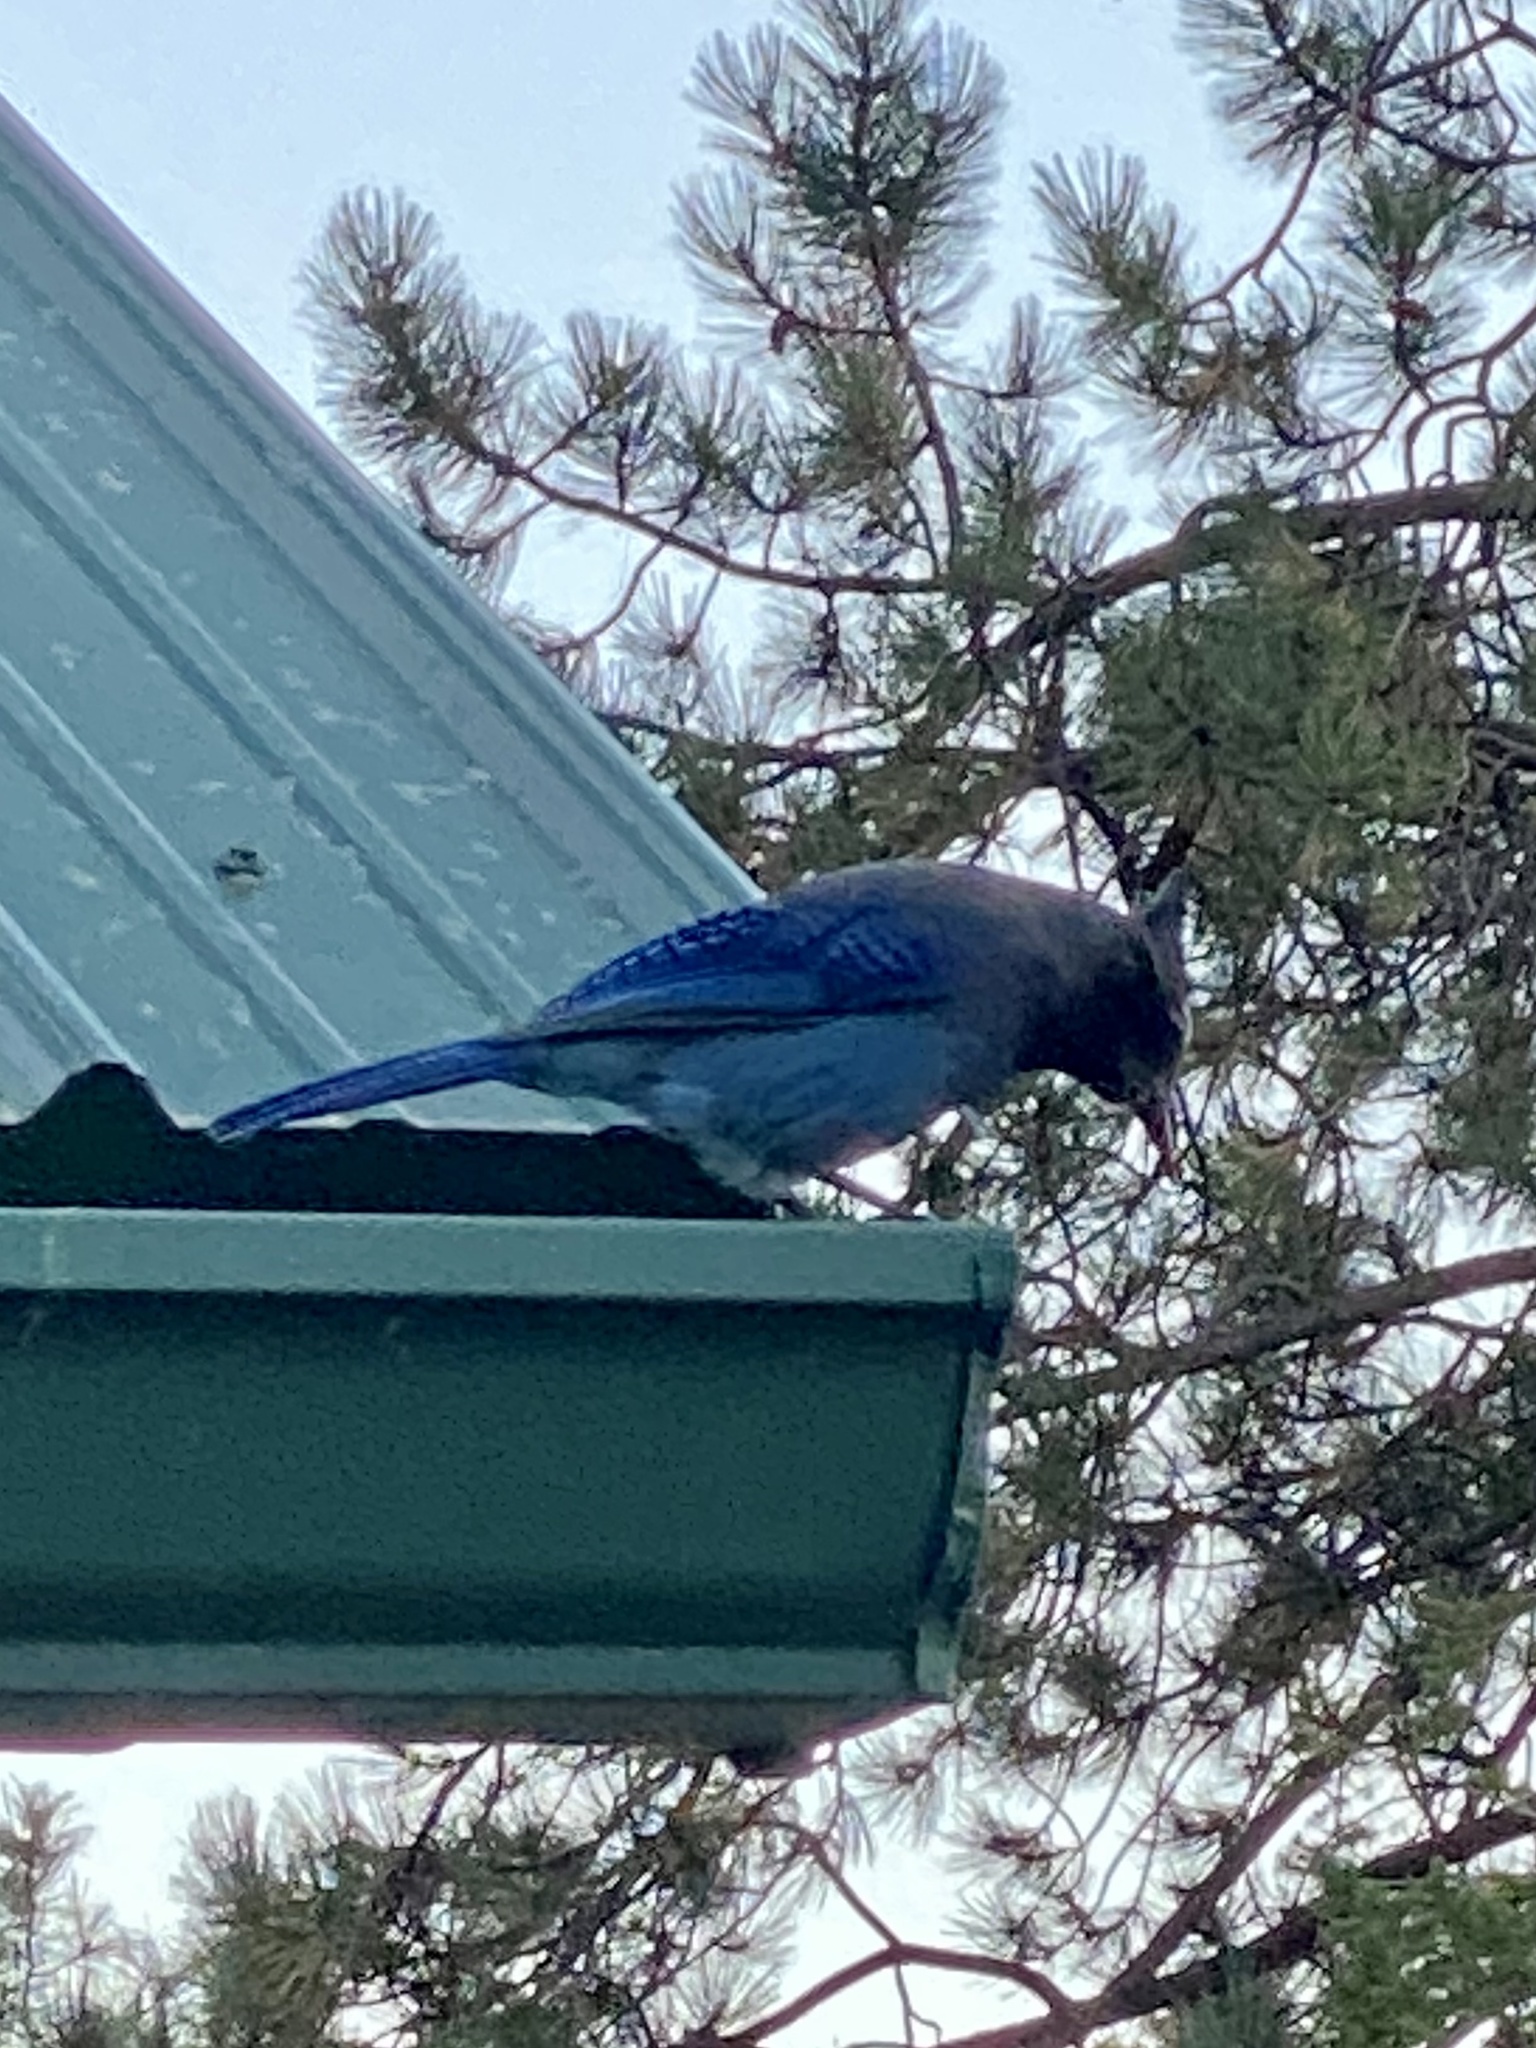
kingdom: Animalia
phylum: Chordata
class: Aves
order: Passeriformes
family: Corvidae
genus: Cyanocitta
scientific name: Cyanocitta stelleri
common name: Steller's jay
